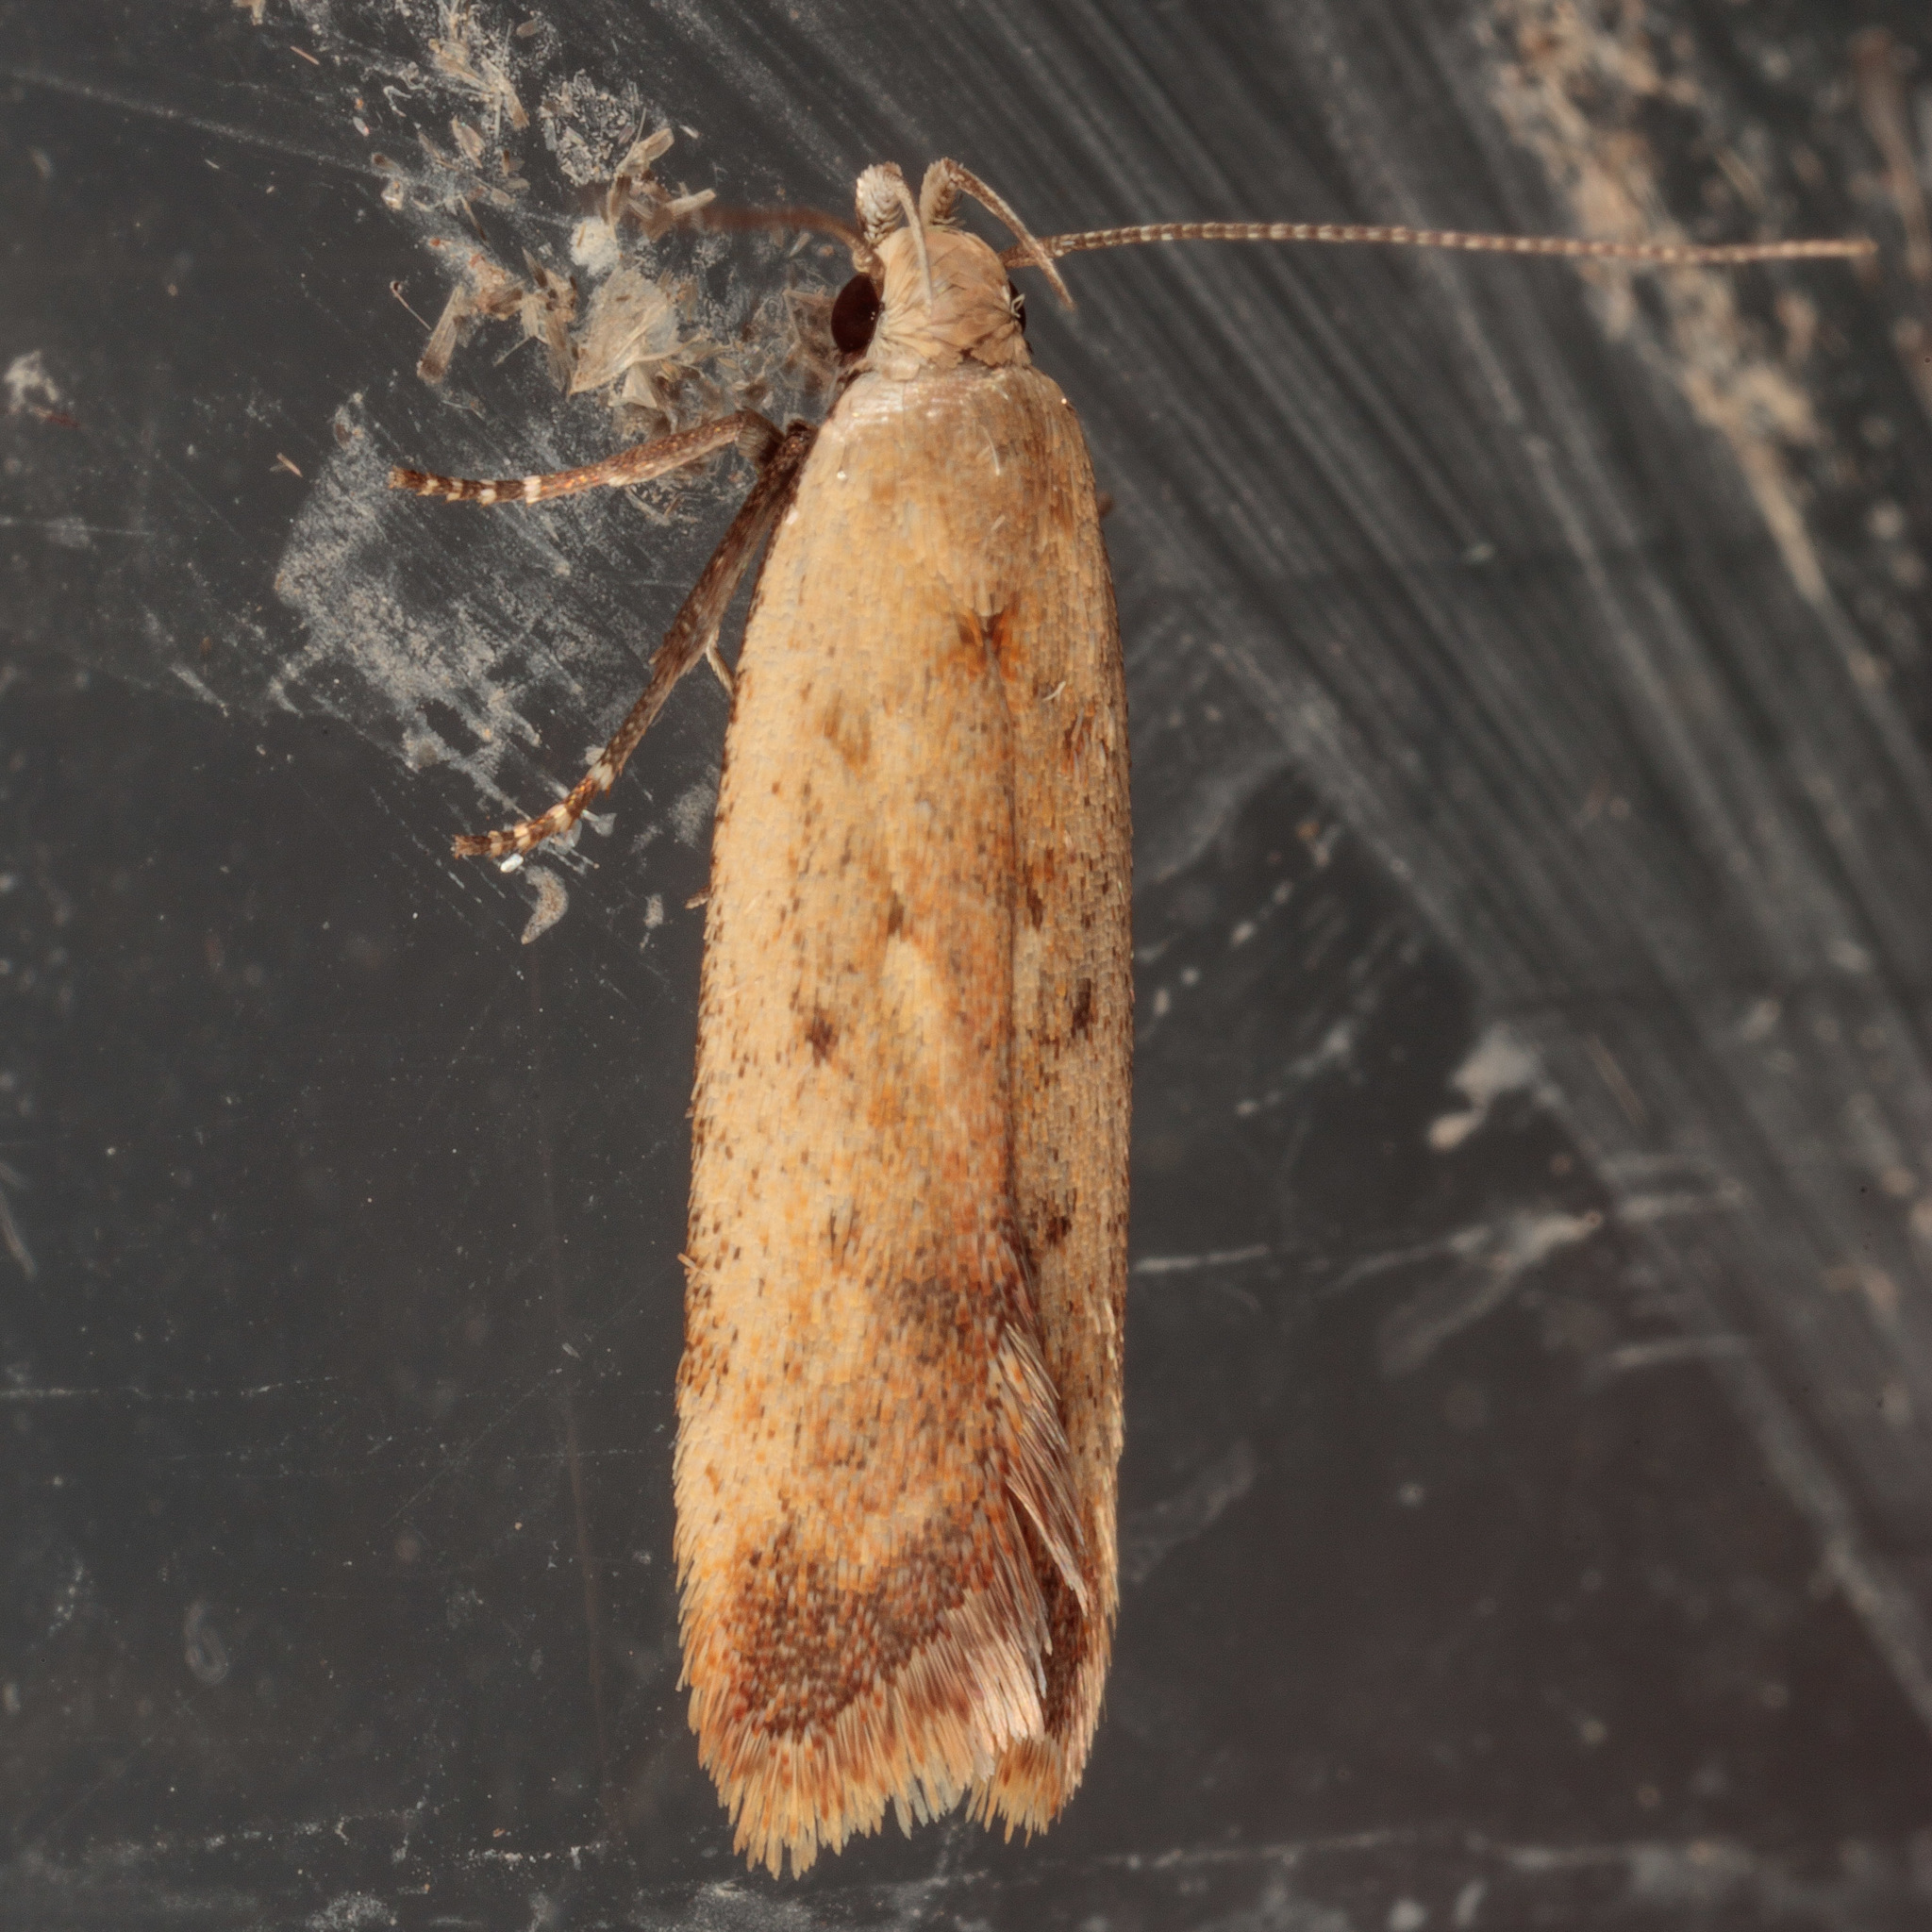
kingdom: Animalia
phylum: Arthropoda
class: Insecta
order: Lepidoptera
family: Gelechiidae
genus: Anacampsis
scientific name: Anacampsis fullonella
